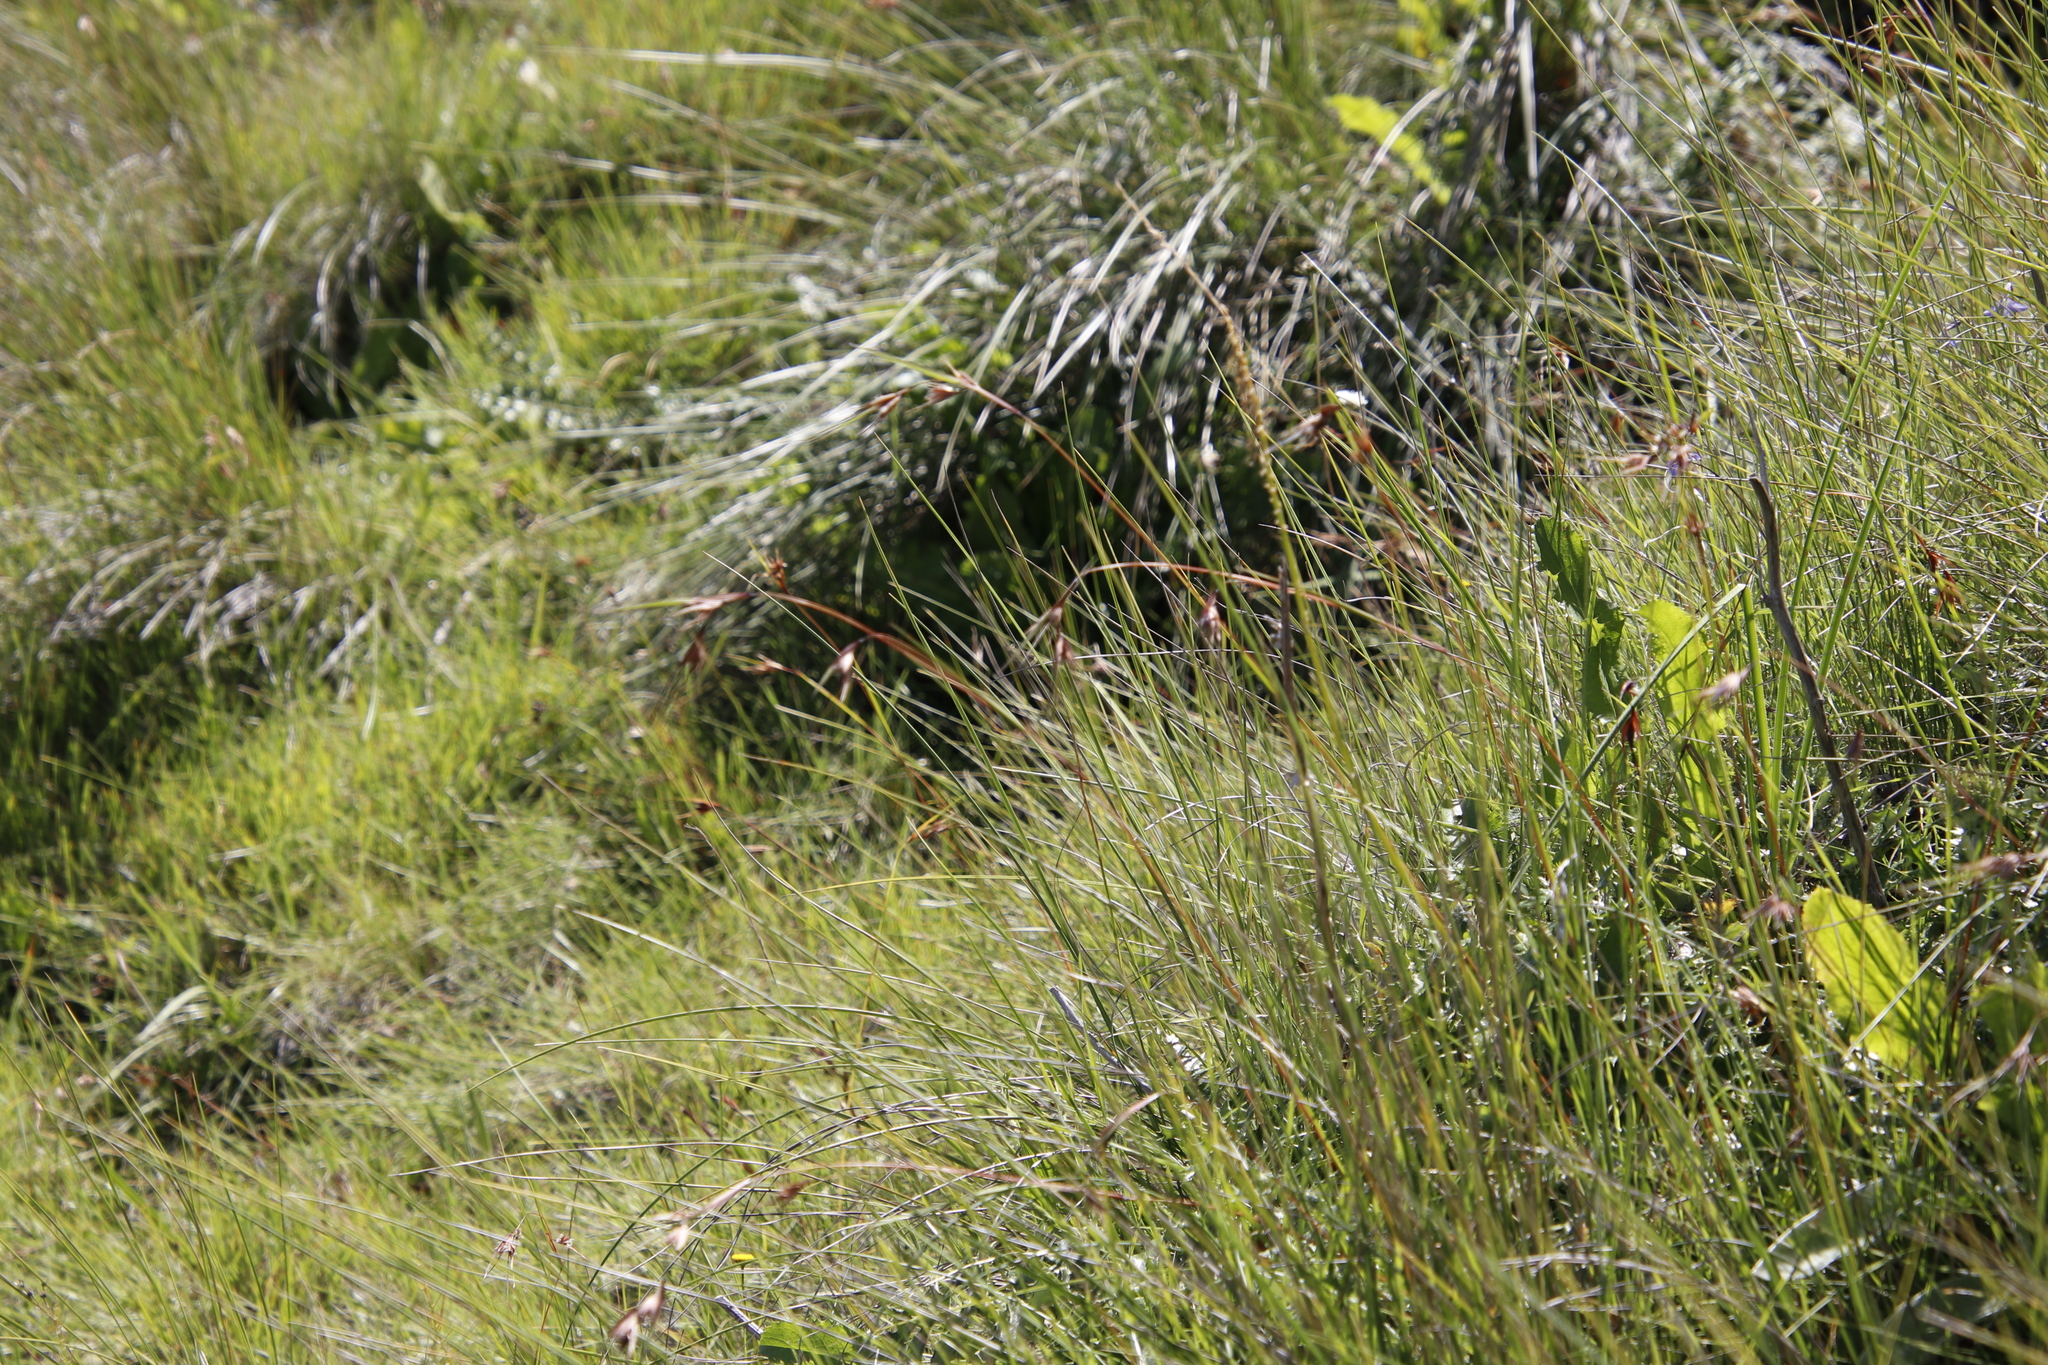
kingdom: Plantae
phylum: Tracheophyta
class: Liliopsida
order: Poales
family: Poaceae
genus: Themeda
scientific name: Themeda triandra
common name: Kangaroo grass
